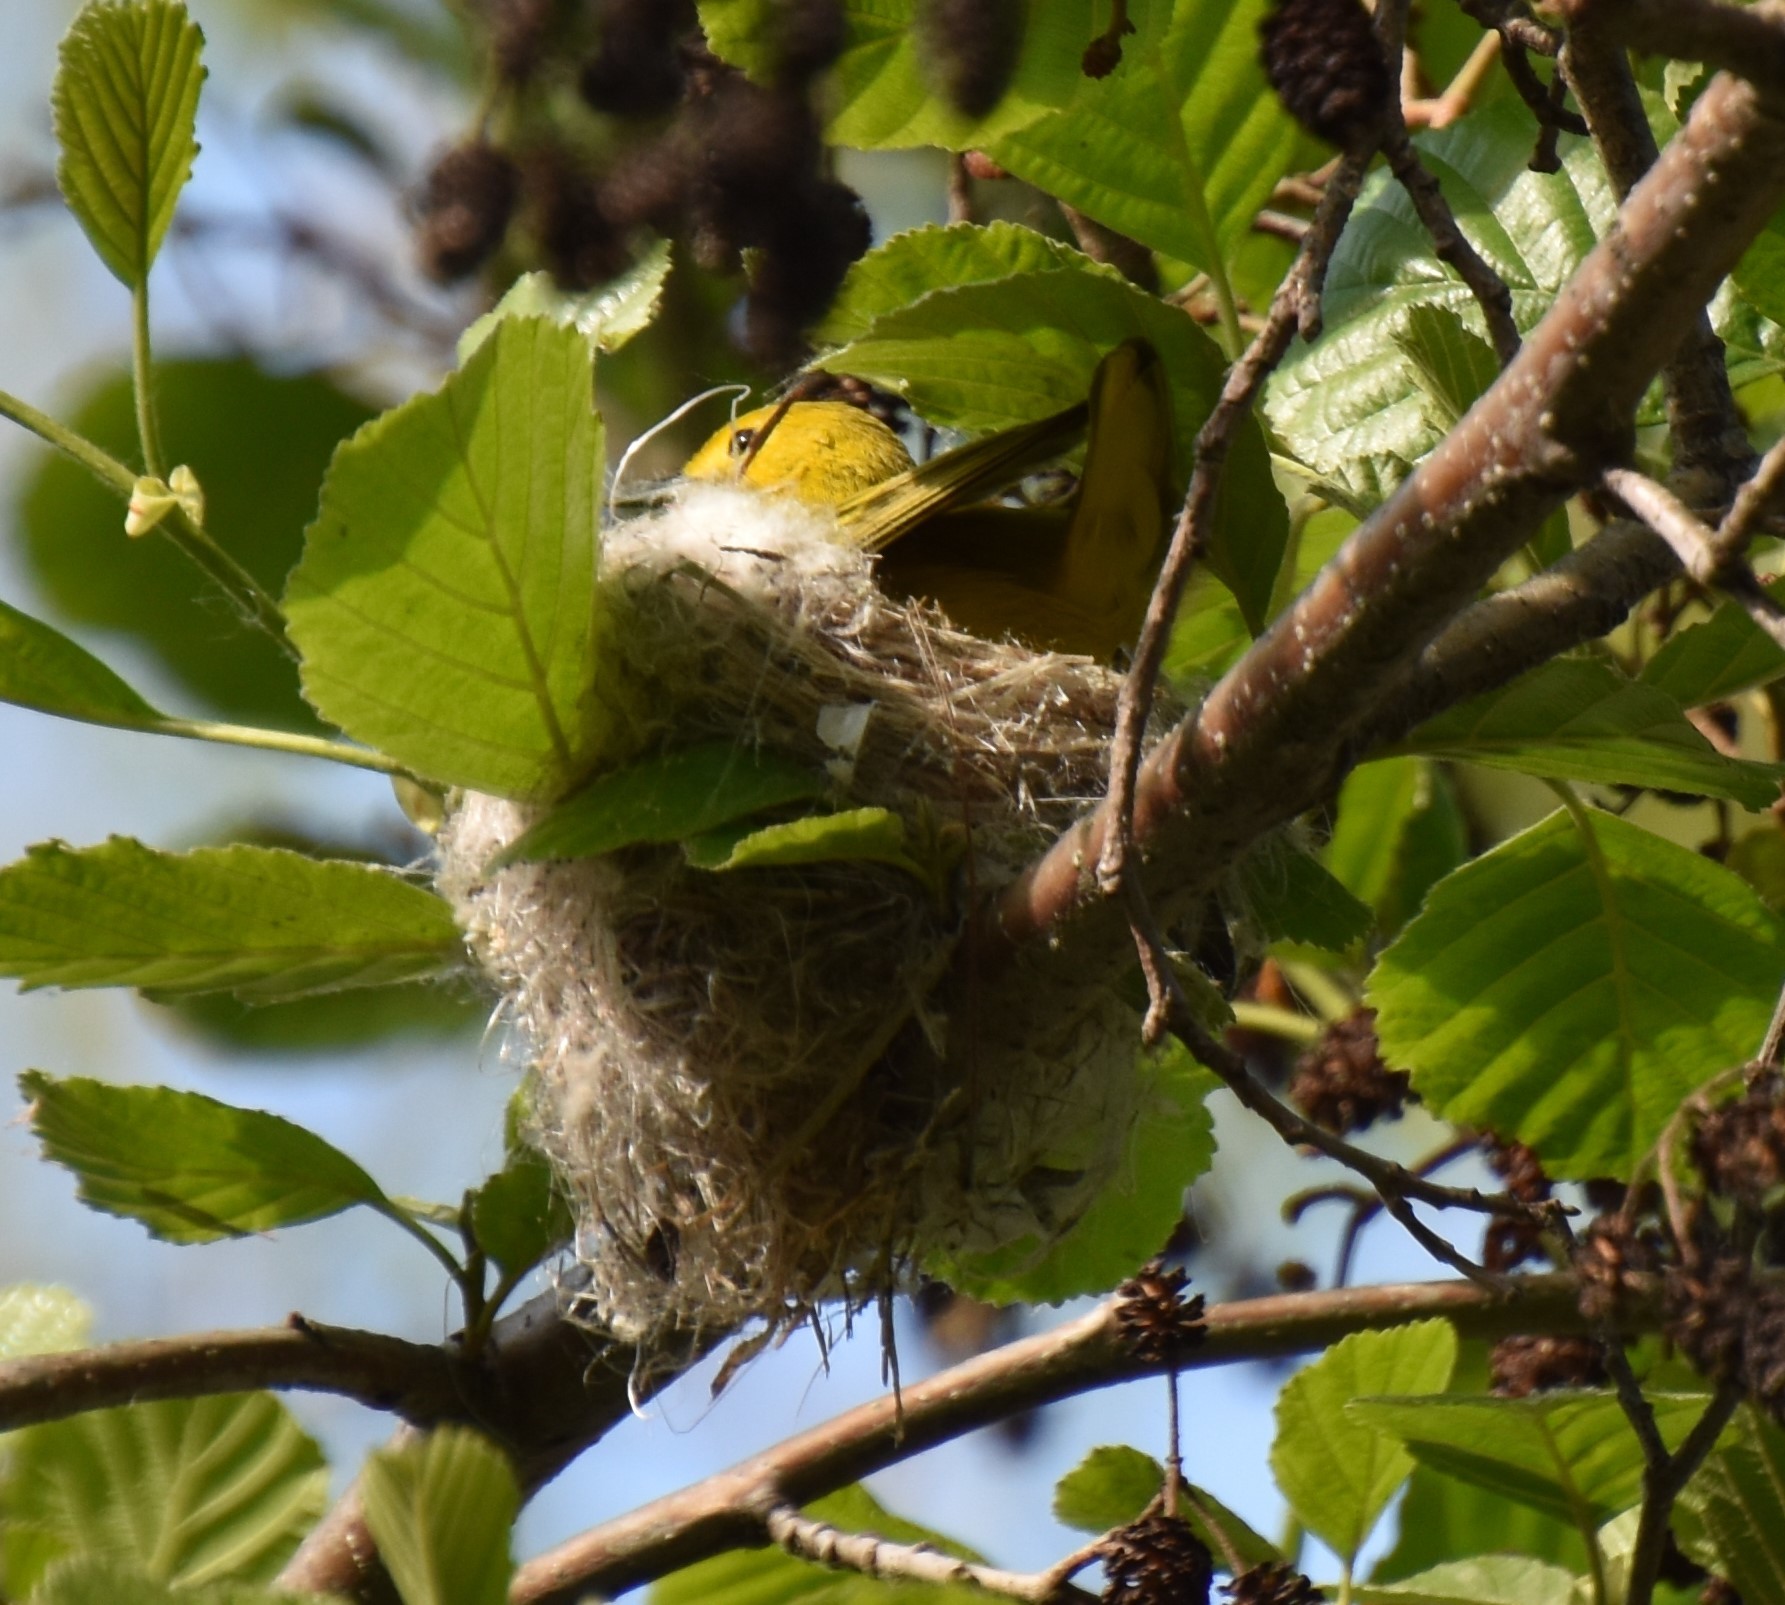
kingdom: Animalia
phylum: Chordata
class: Aves
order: Passeriformes
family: Parulidae
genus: Setophaga
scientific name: Setophaga petechia
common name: Yellow warbler
